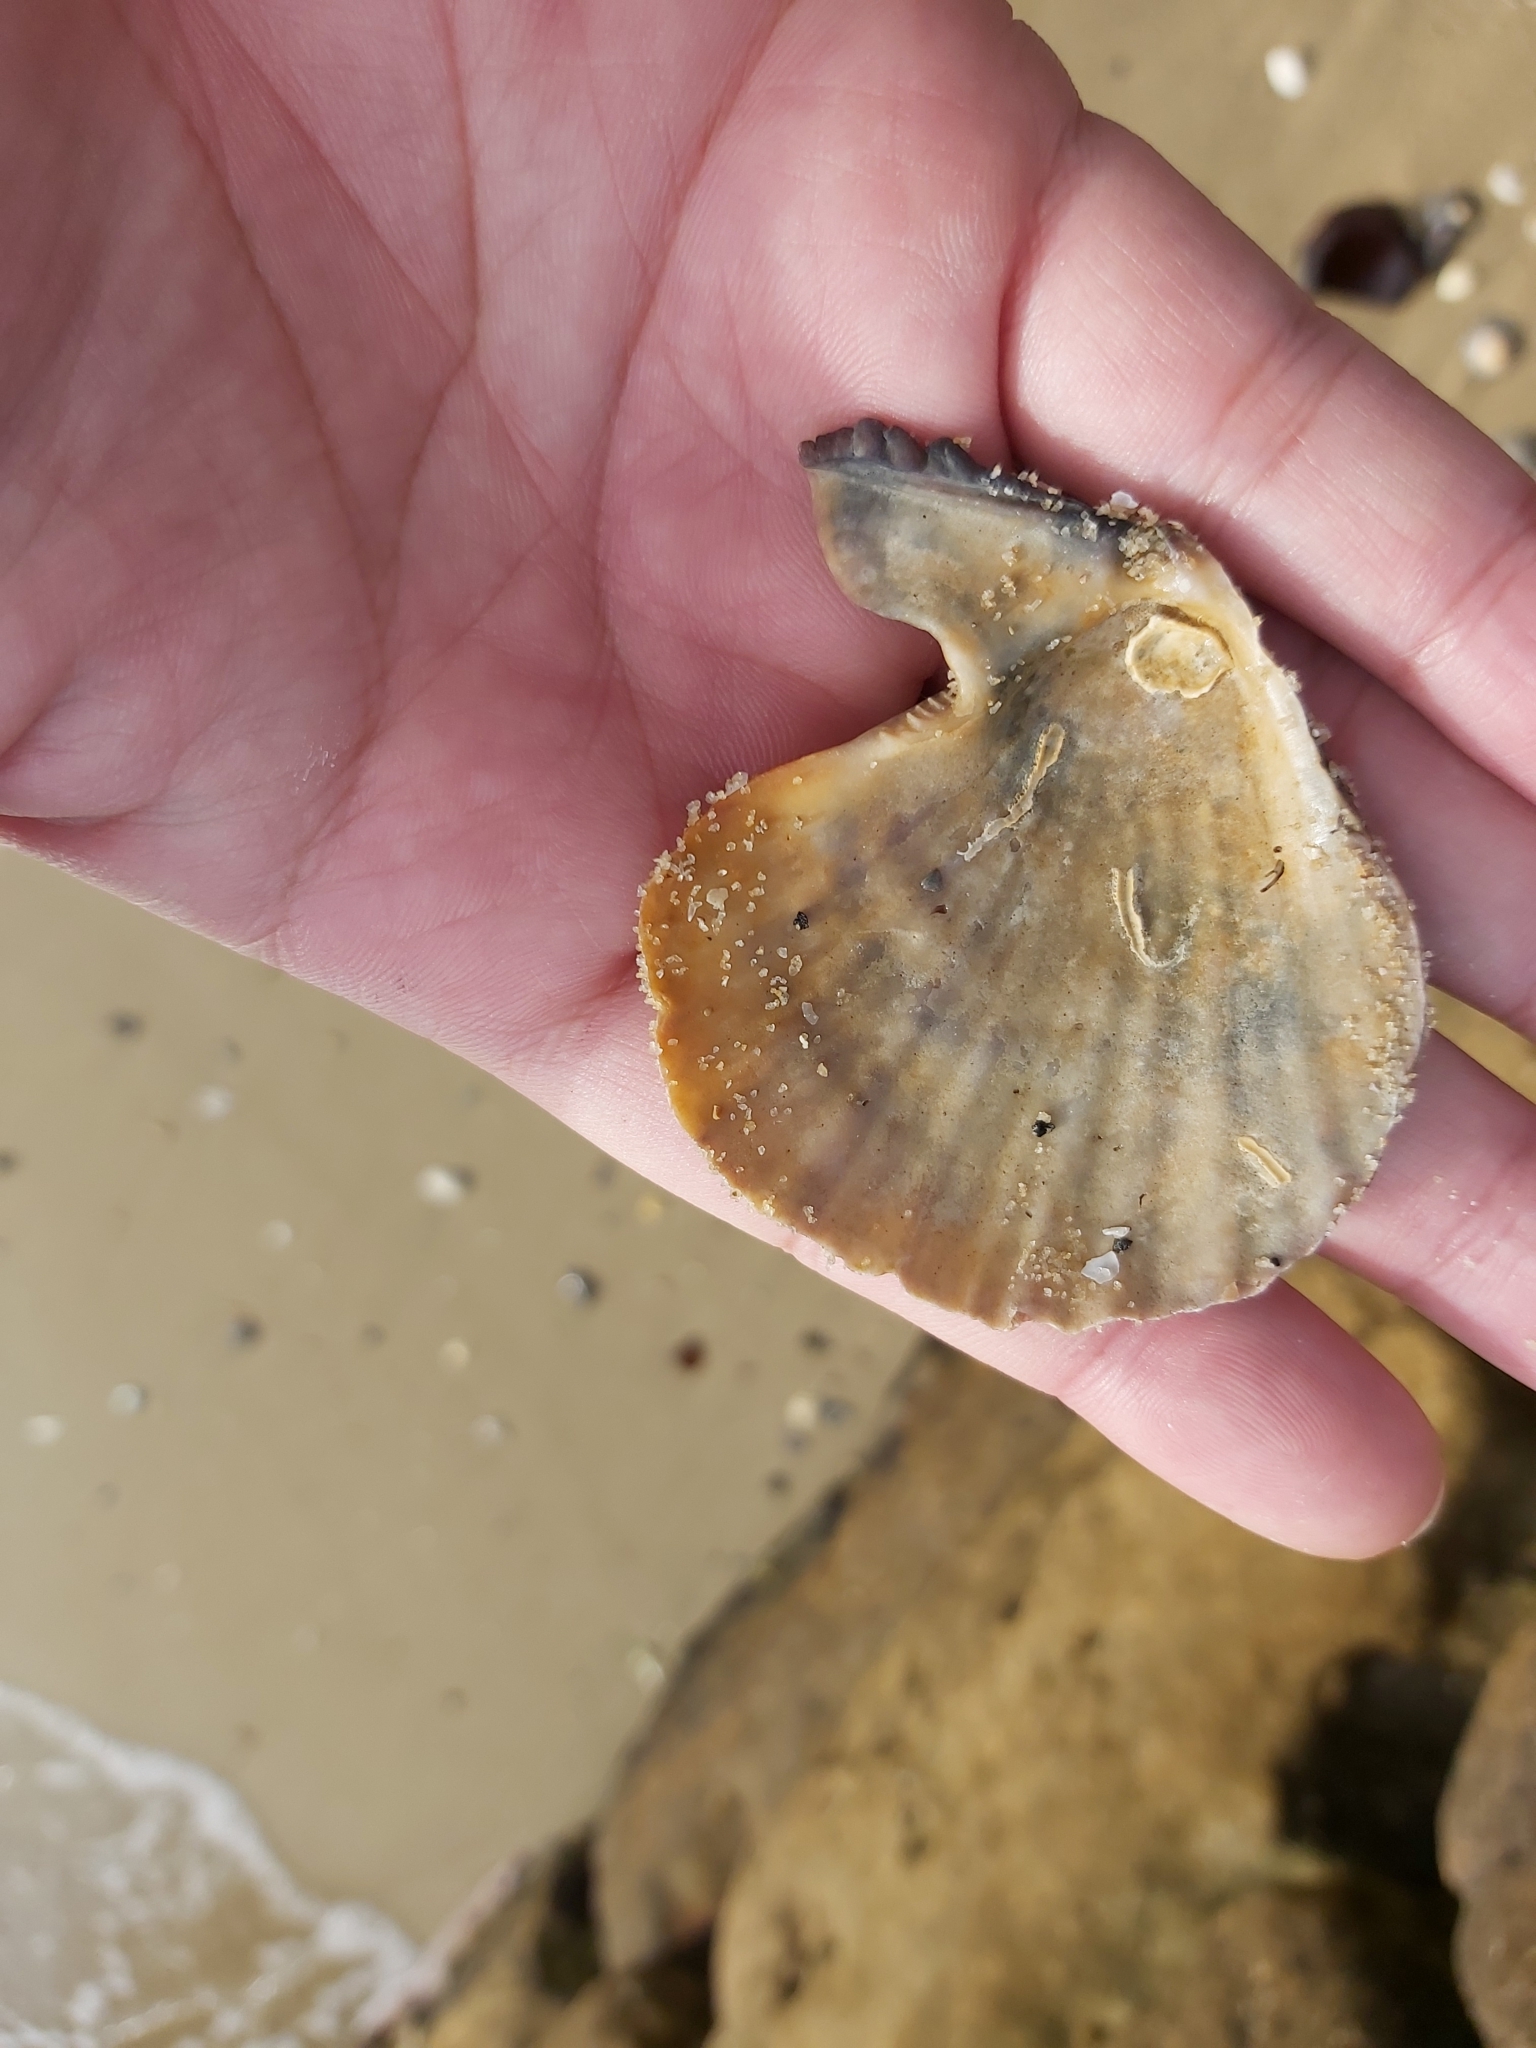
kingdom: Animalia
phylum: Mollusca
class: Bivalvia
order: Pectinida
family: Pectinidae
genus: Scaeochlamys
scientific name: Scaeochlamys livida
